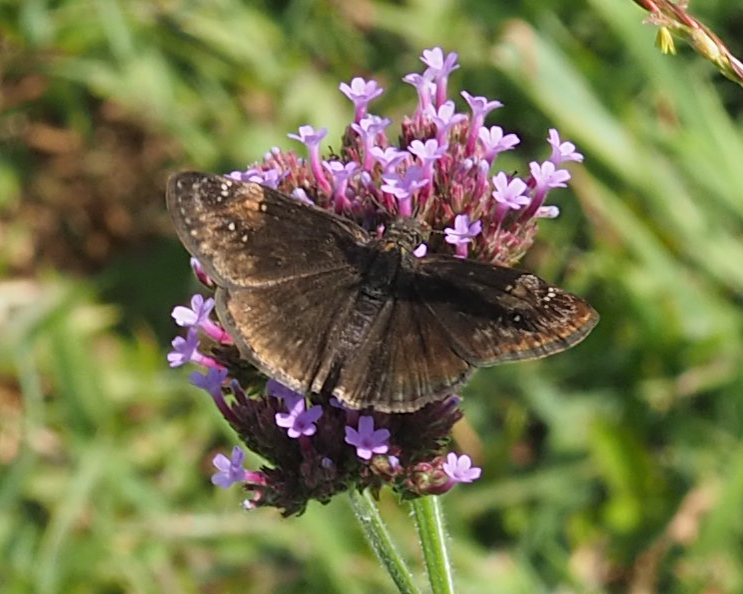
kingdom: Animalia
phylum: Arthropoda
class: Insecta
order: Lepidoptera
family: Hesperiidae
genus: Erynnis
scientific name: Erynnis baptisiae
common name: Wild indigo duskywing
